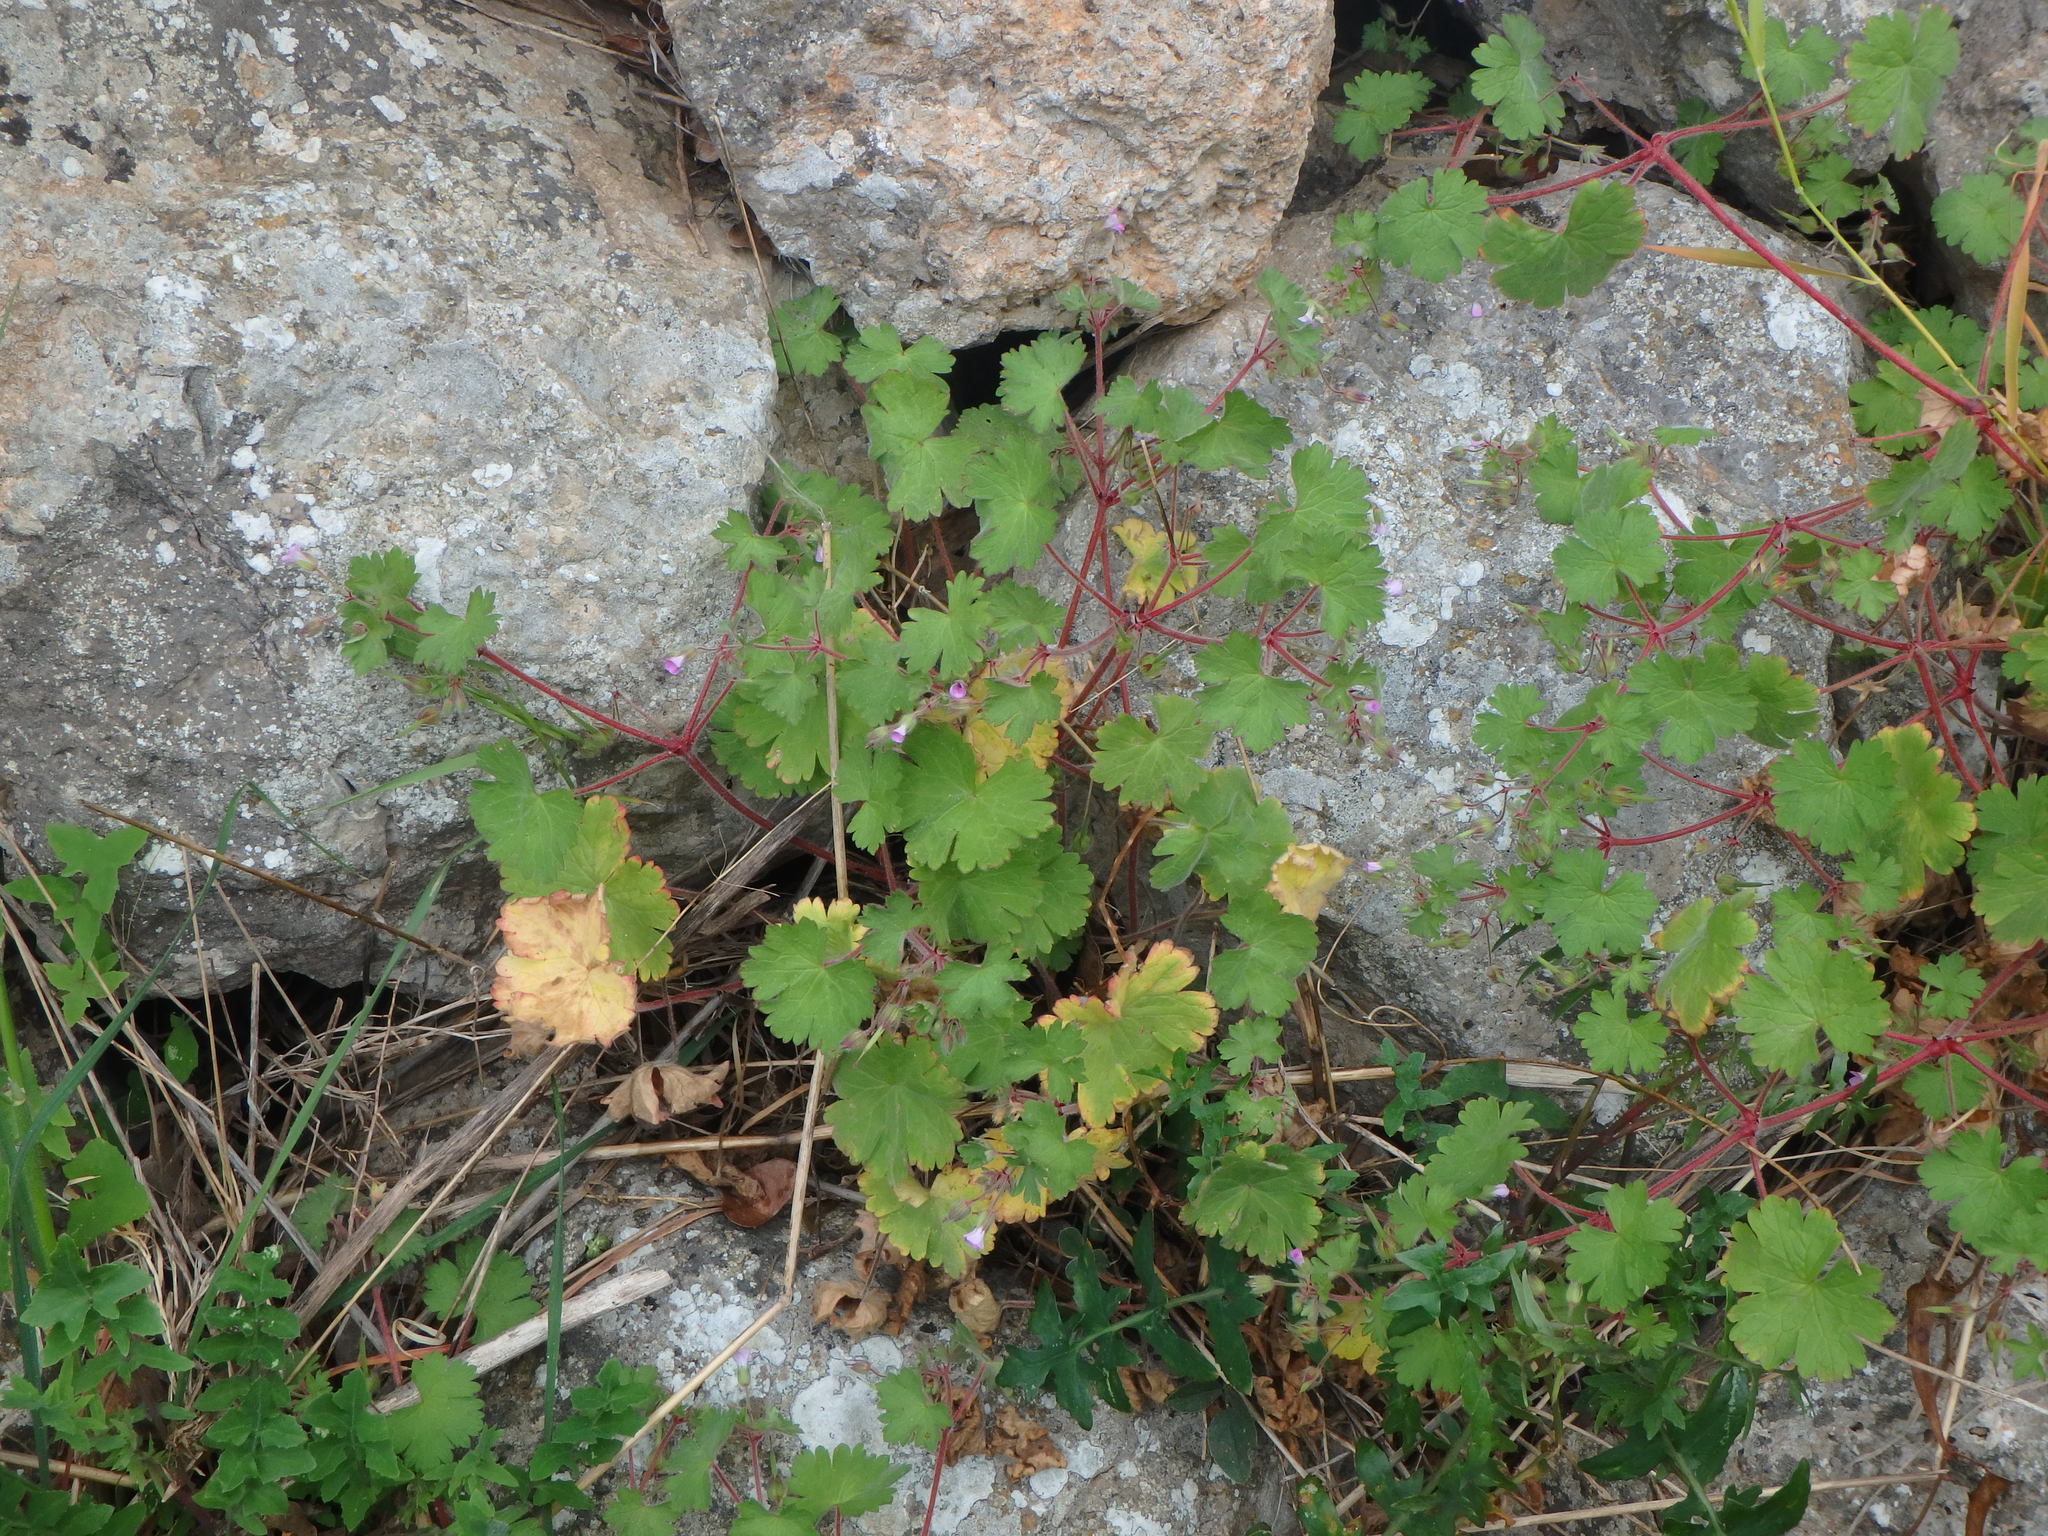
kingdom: Plantae
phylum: Tracheophyta
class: Magnoliopsida
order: Geraniales
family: Geraniaceae
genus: Geranium
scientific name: Geranium rotundifolium
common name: Round-leaved crane's-bill
